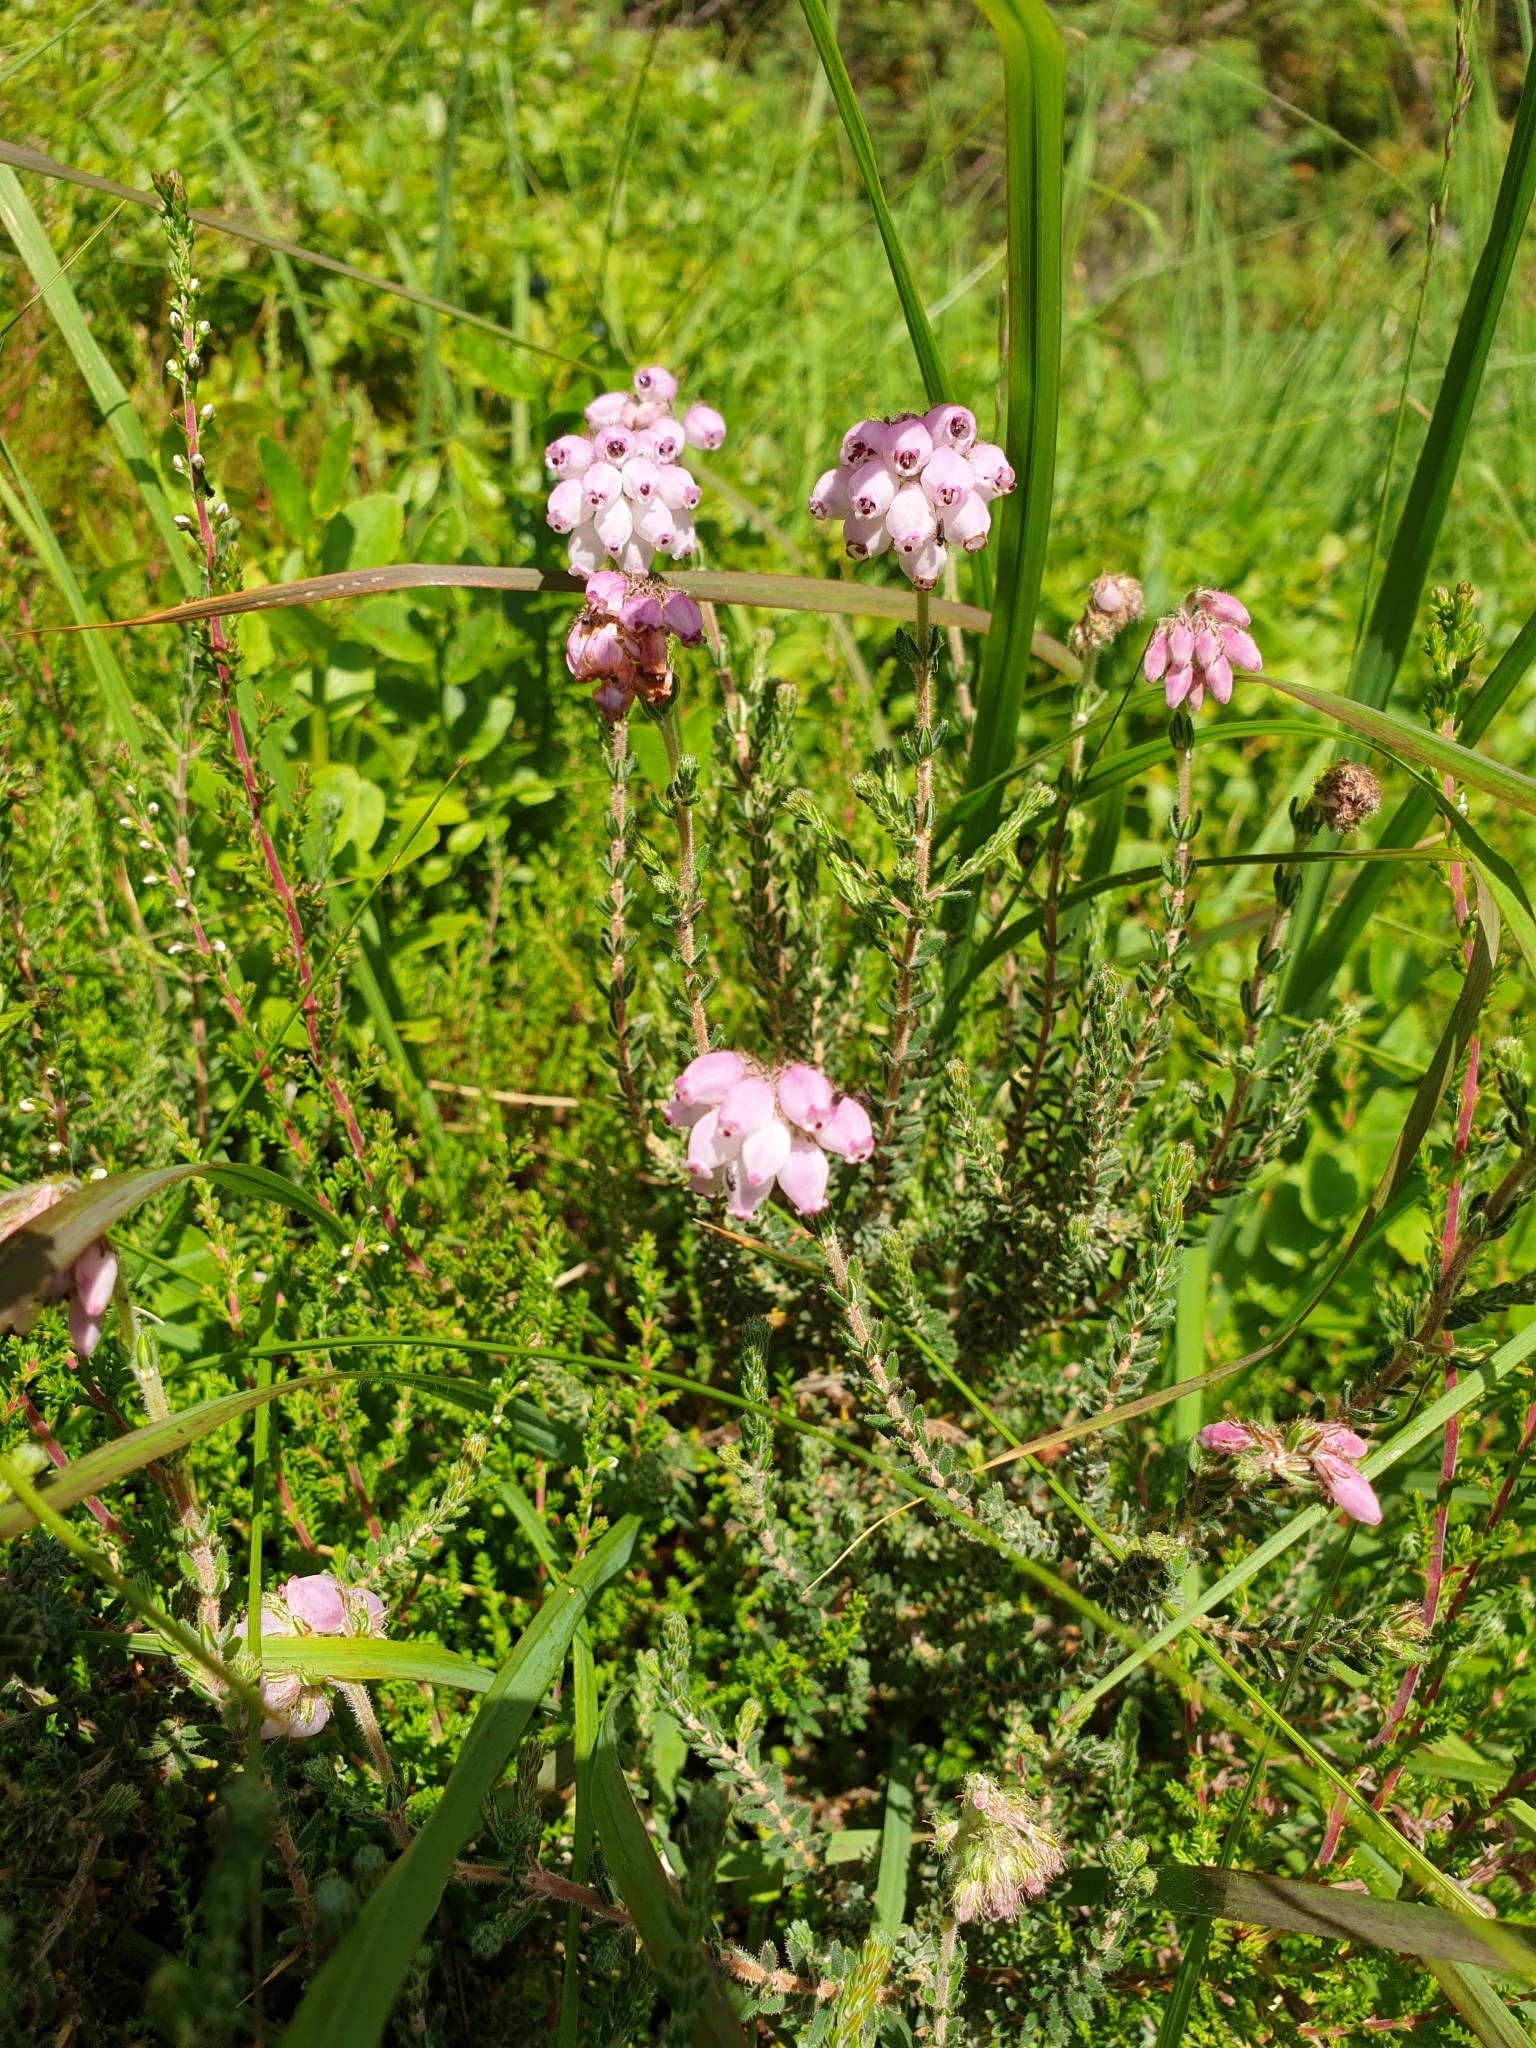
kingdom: Plantae
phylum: Tracheophyta
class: Magnoliopsida
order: Ericales
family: Ericaceae
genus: Erica
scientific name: Erica tetralix
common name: Cross-leaved heath
